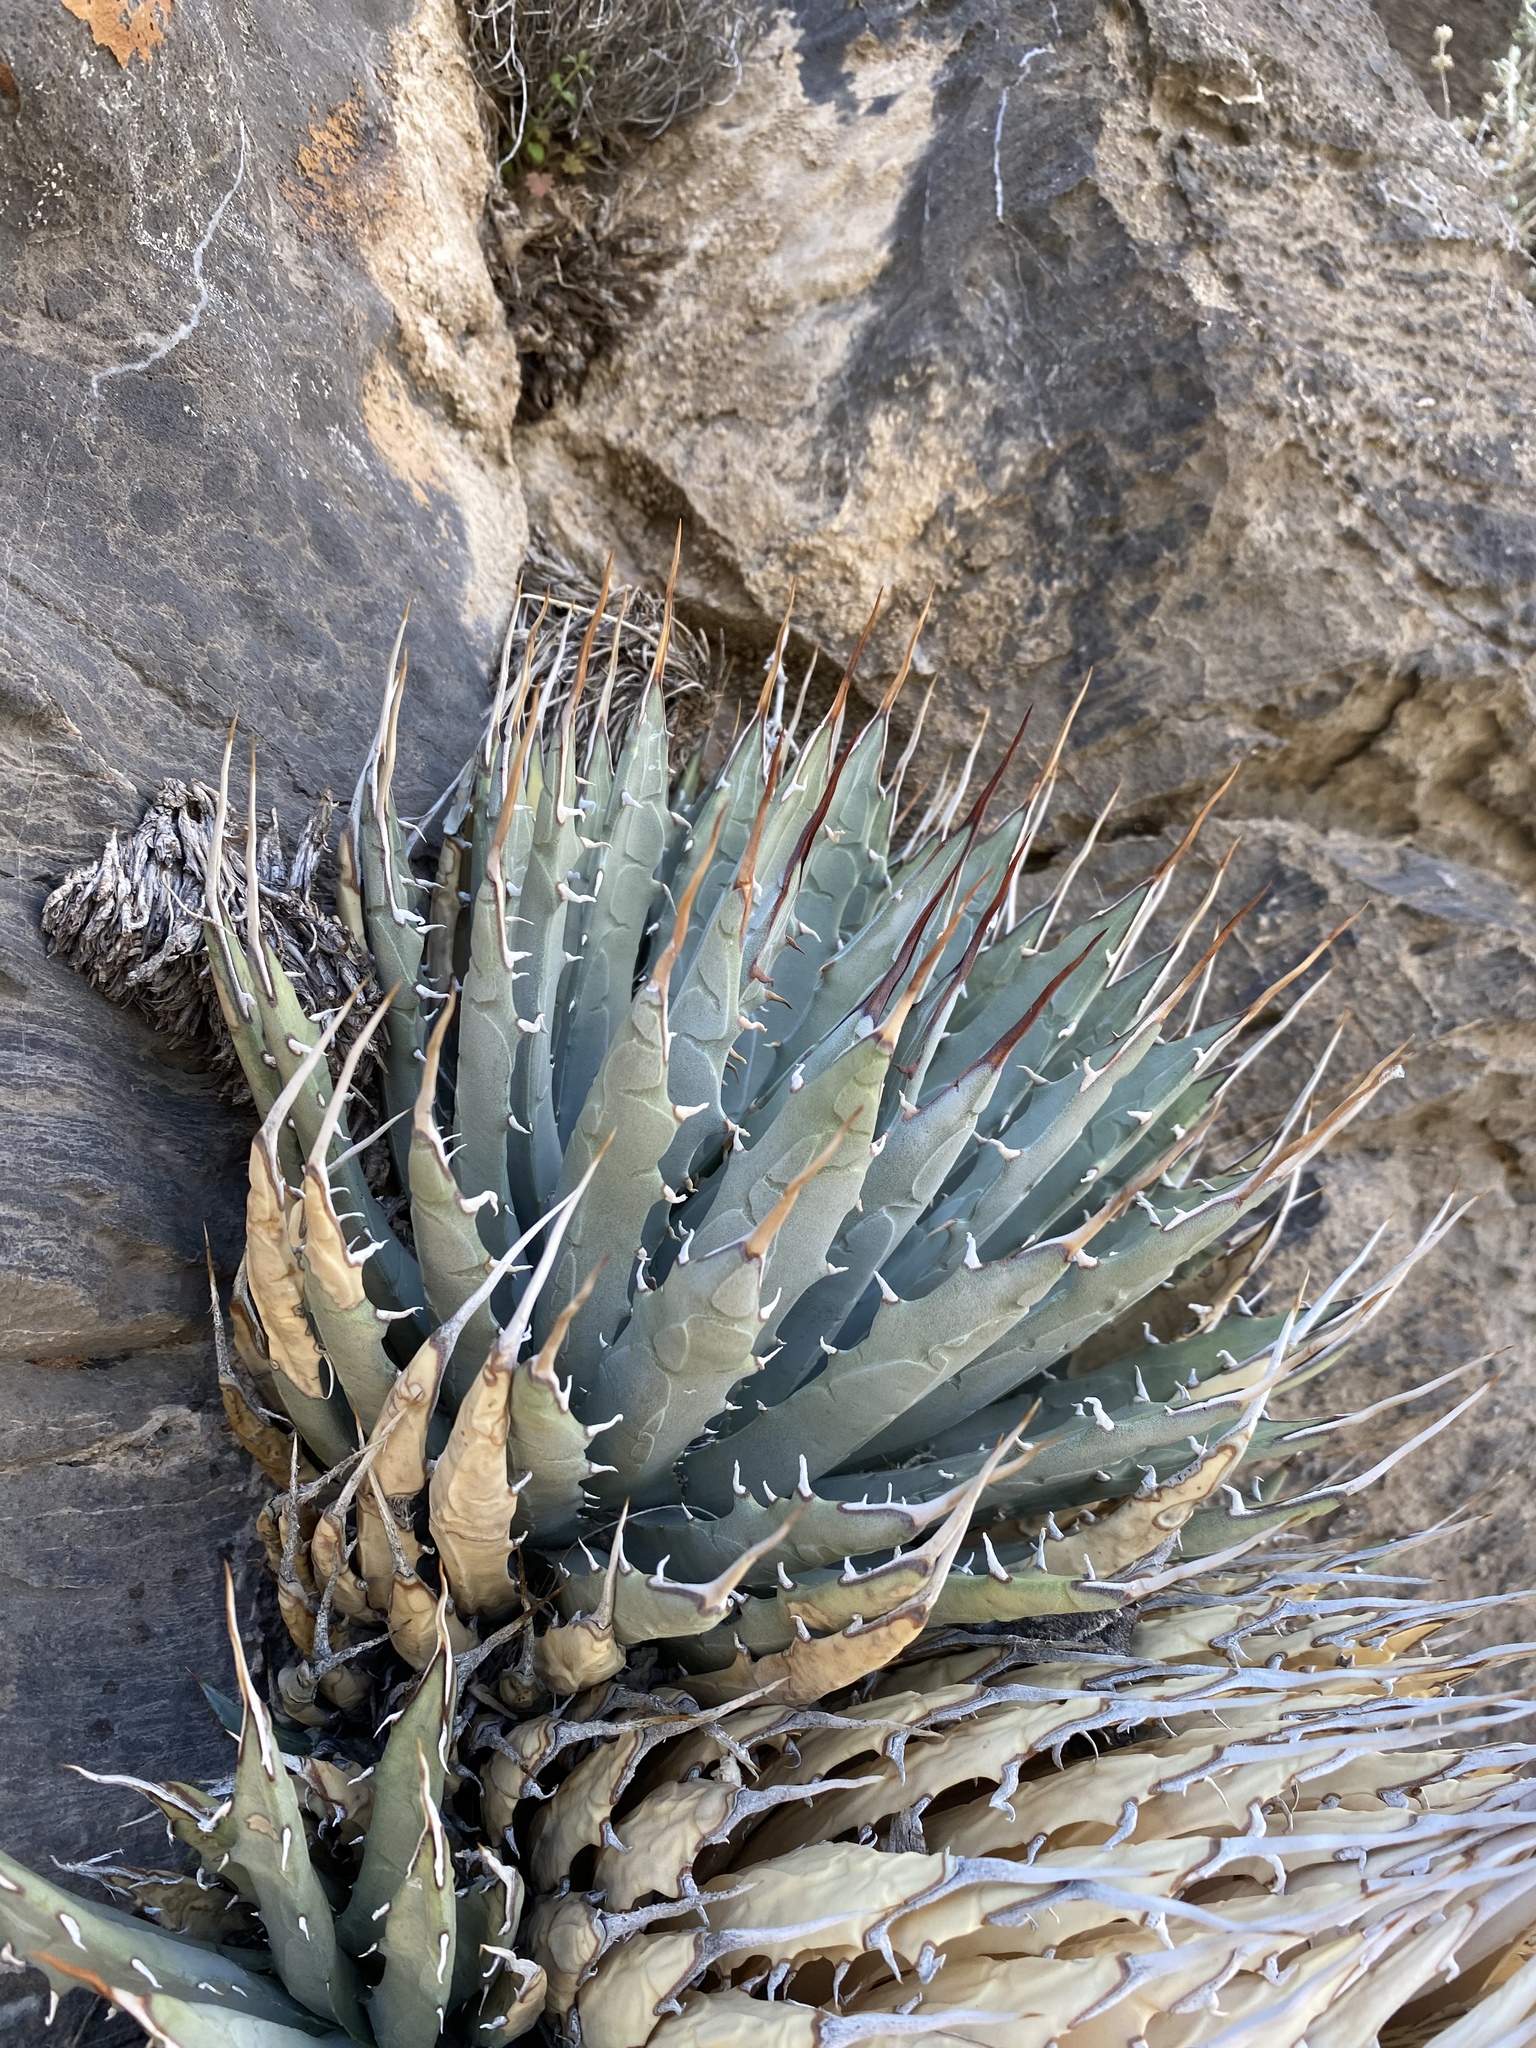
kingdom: Plantae
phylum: Tracheophyta
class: Liliopsida
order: Asparagales
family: Asparagaceae
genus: Agave
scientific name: Agave utahensis
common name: Utah agave
